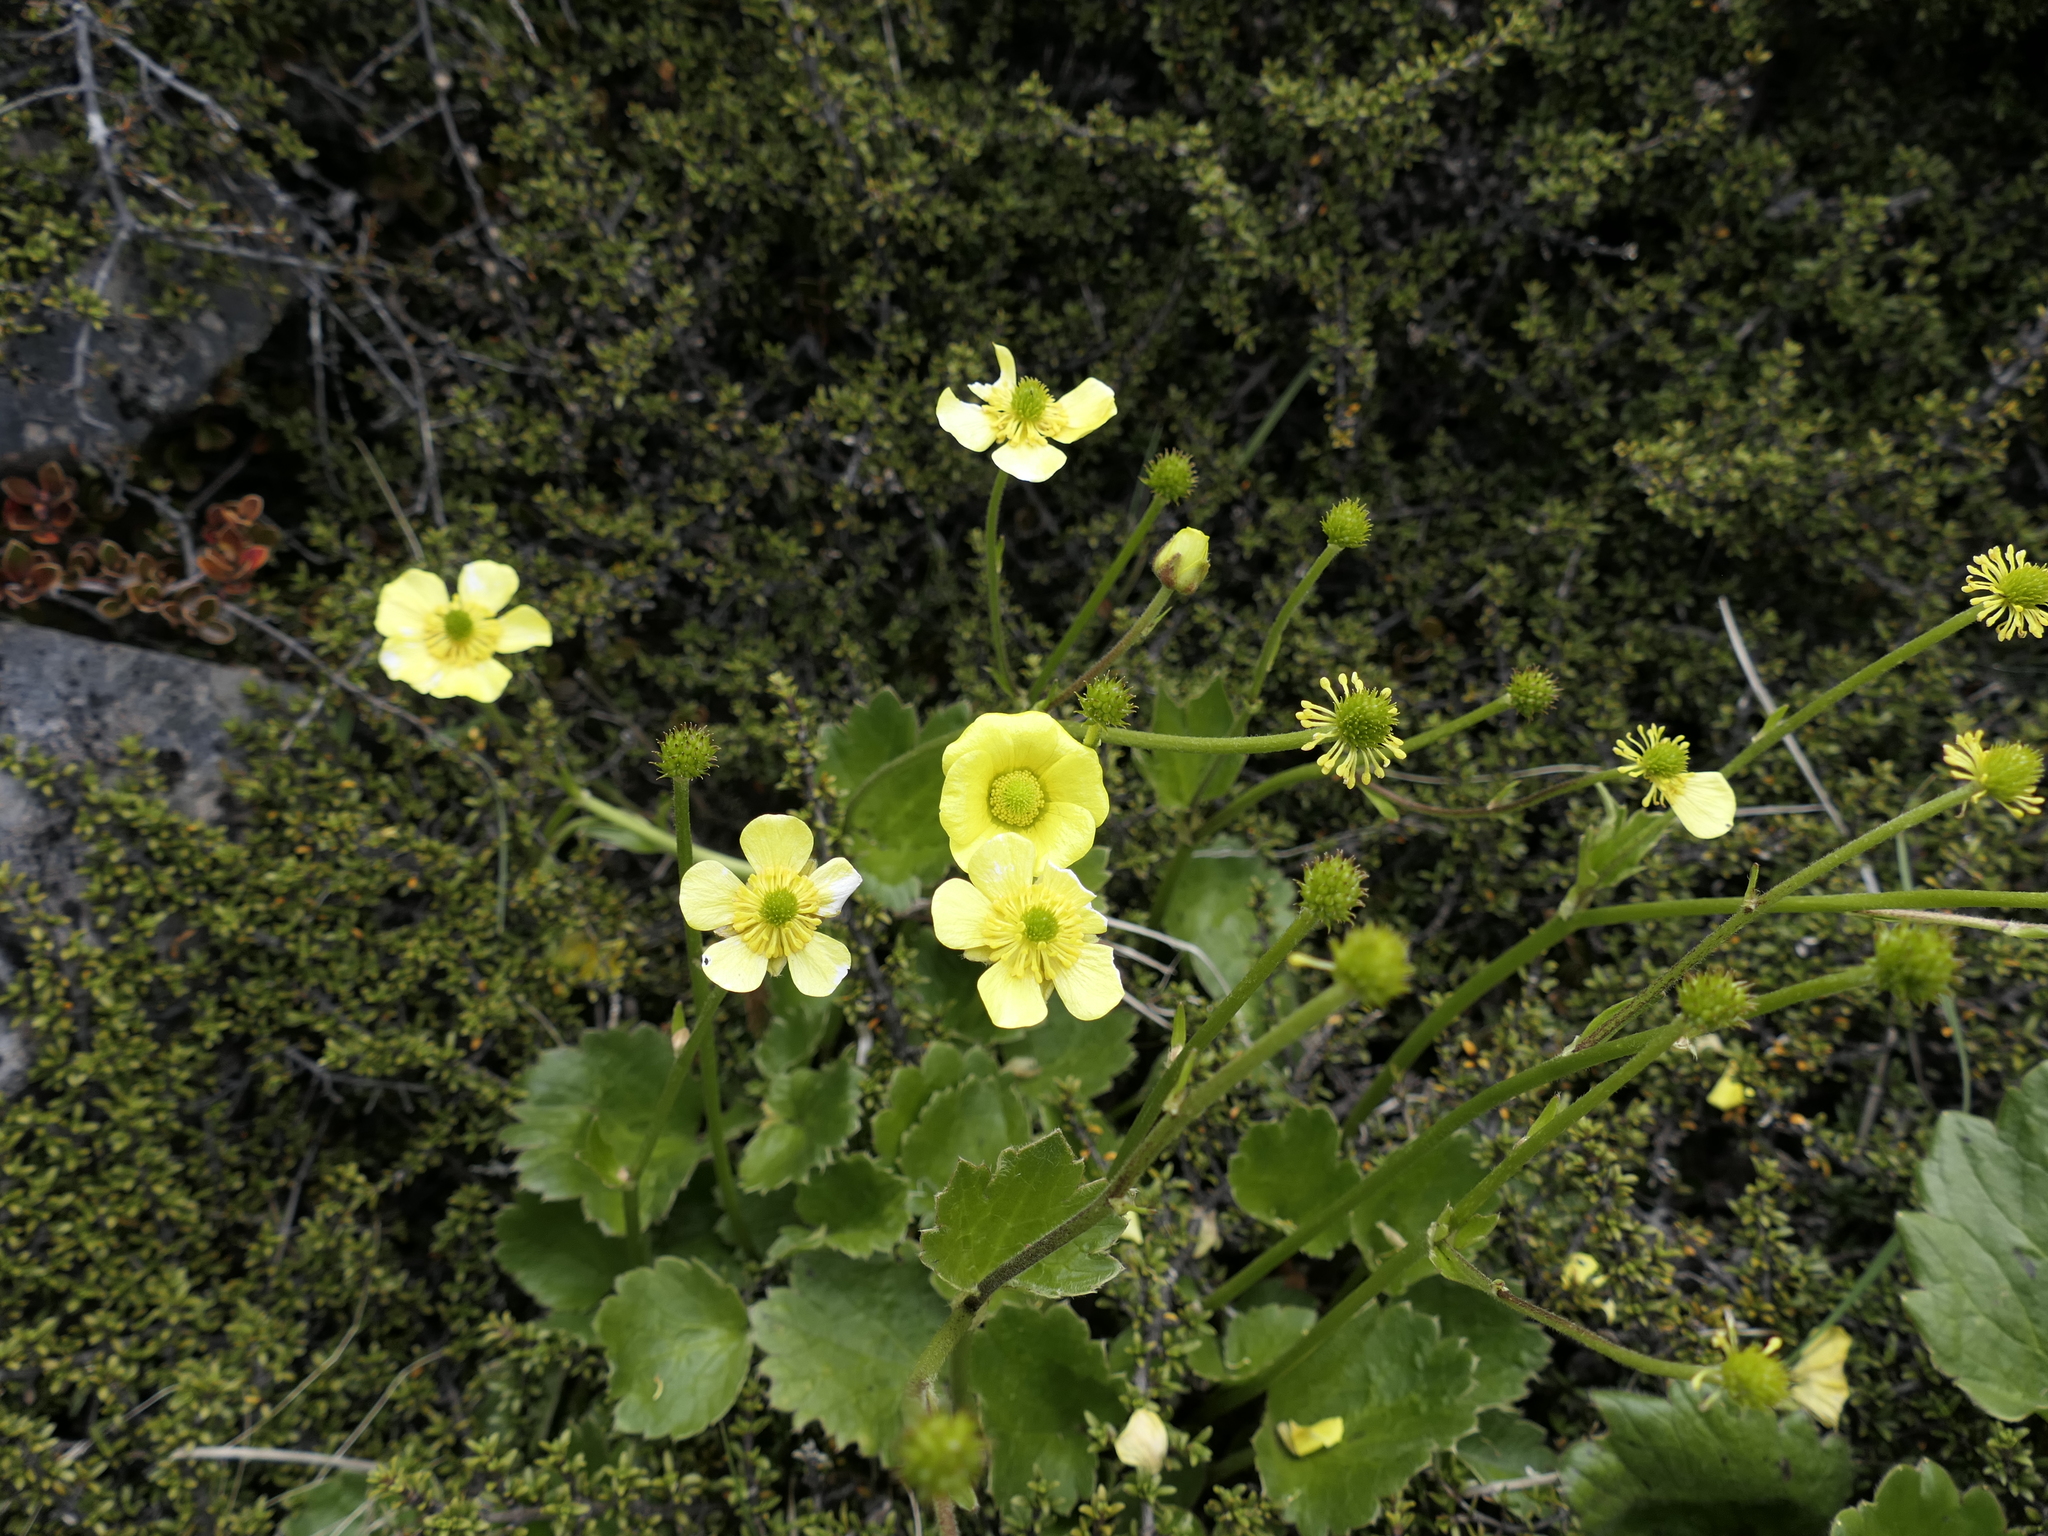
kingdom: Plantae
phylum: Tracheophyta
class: Magnoliopsida
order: Ranunculales
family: Ranunculaceae
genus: Ranunculus
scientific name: Ranunculus insignis
